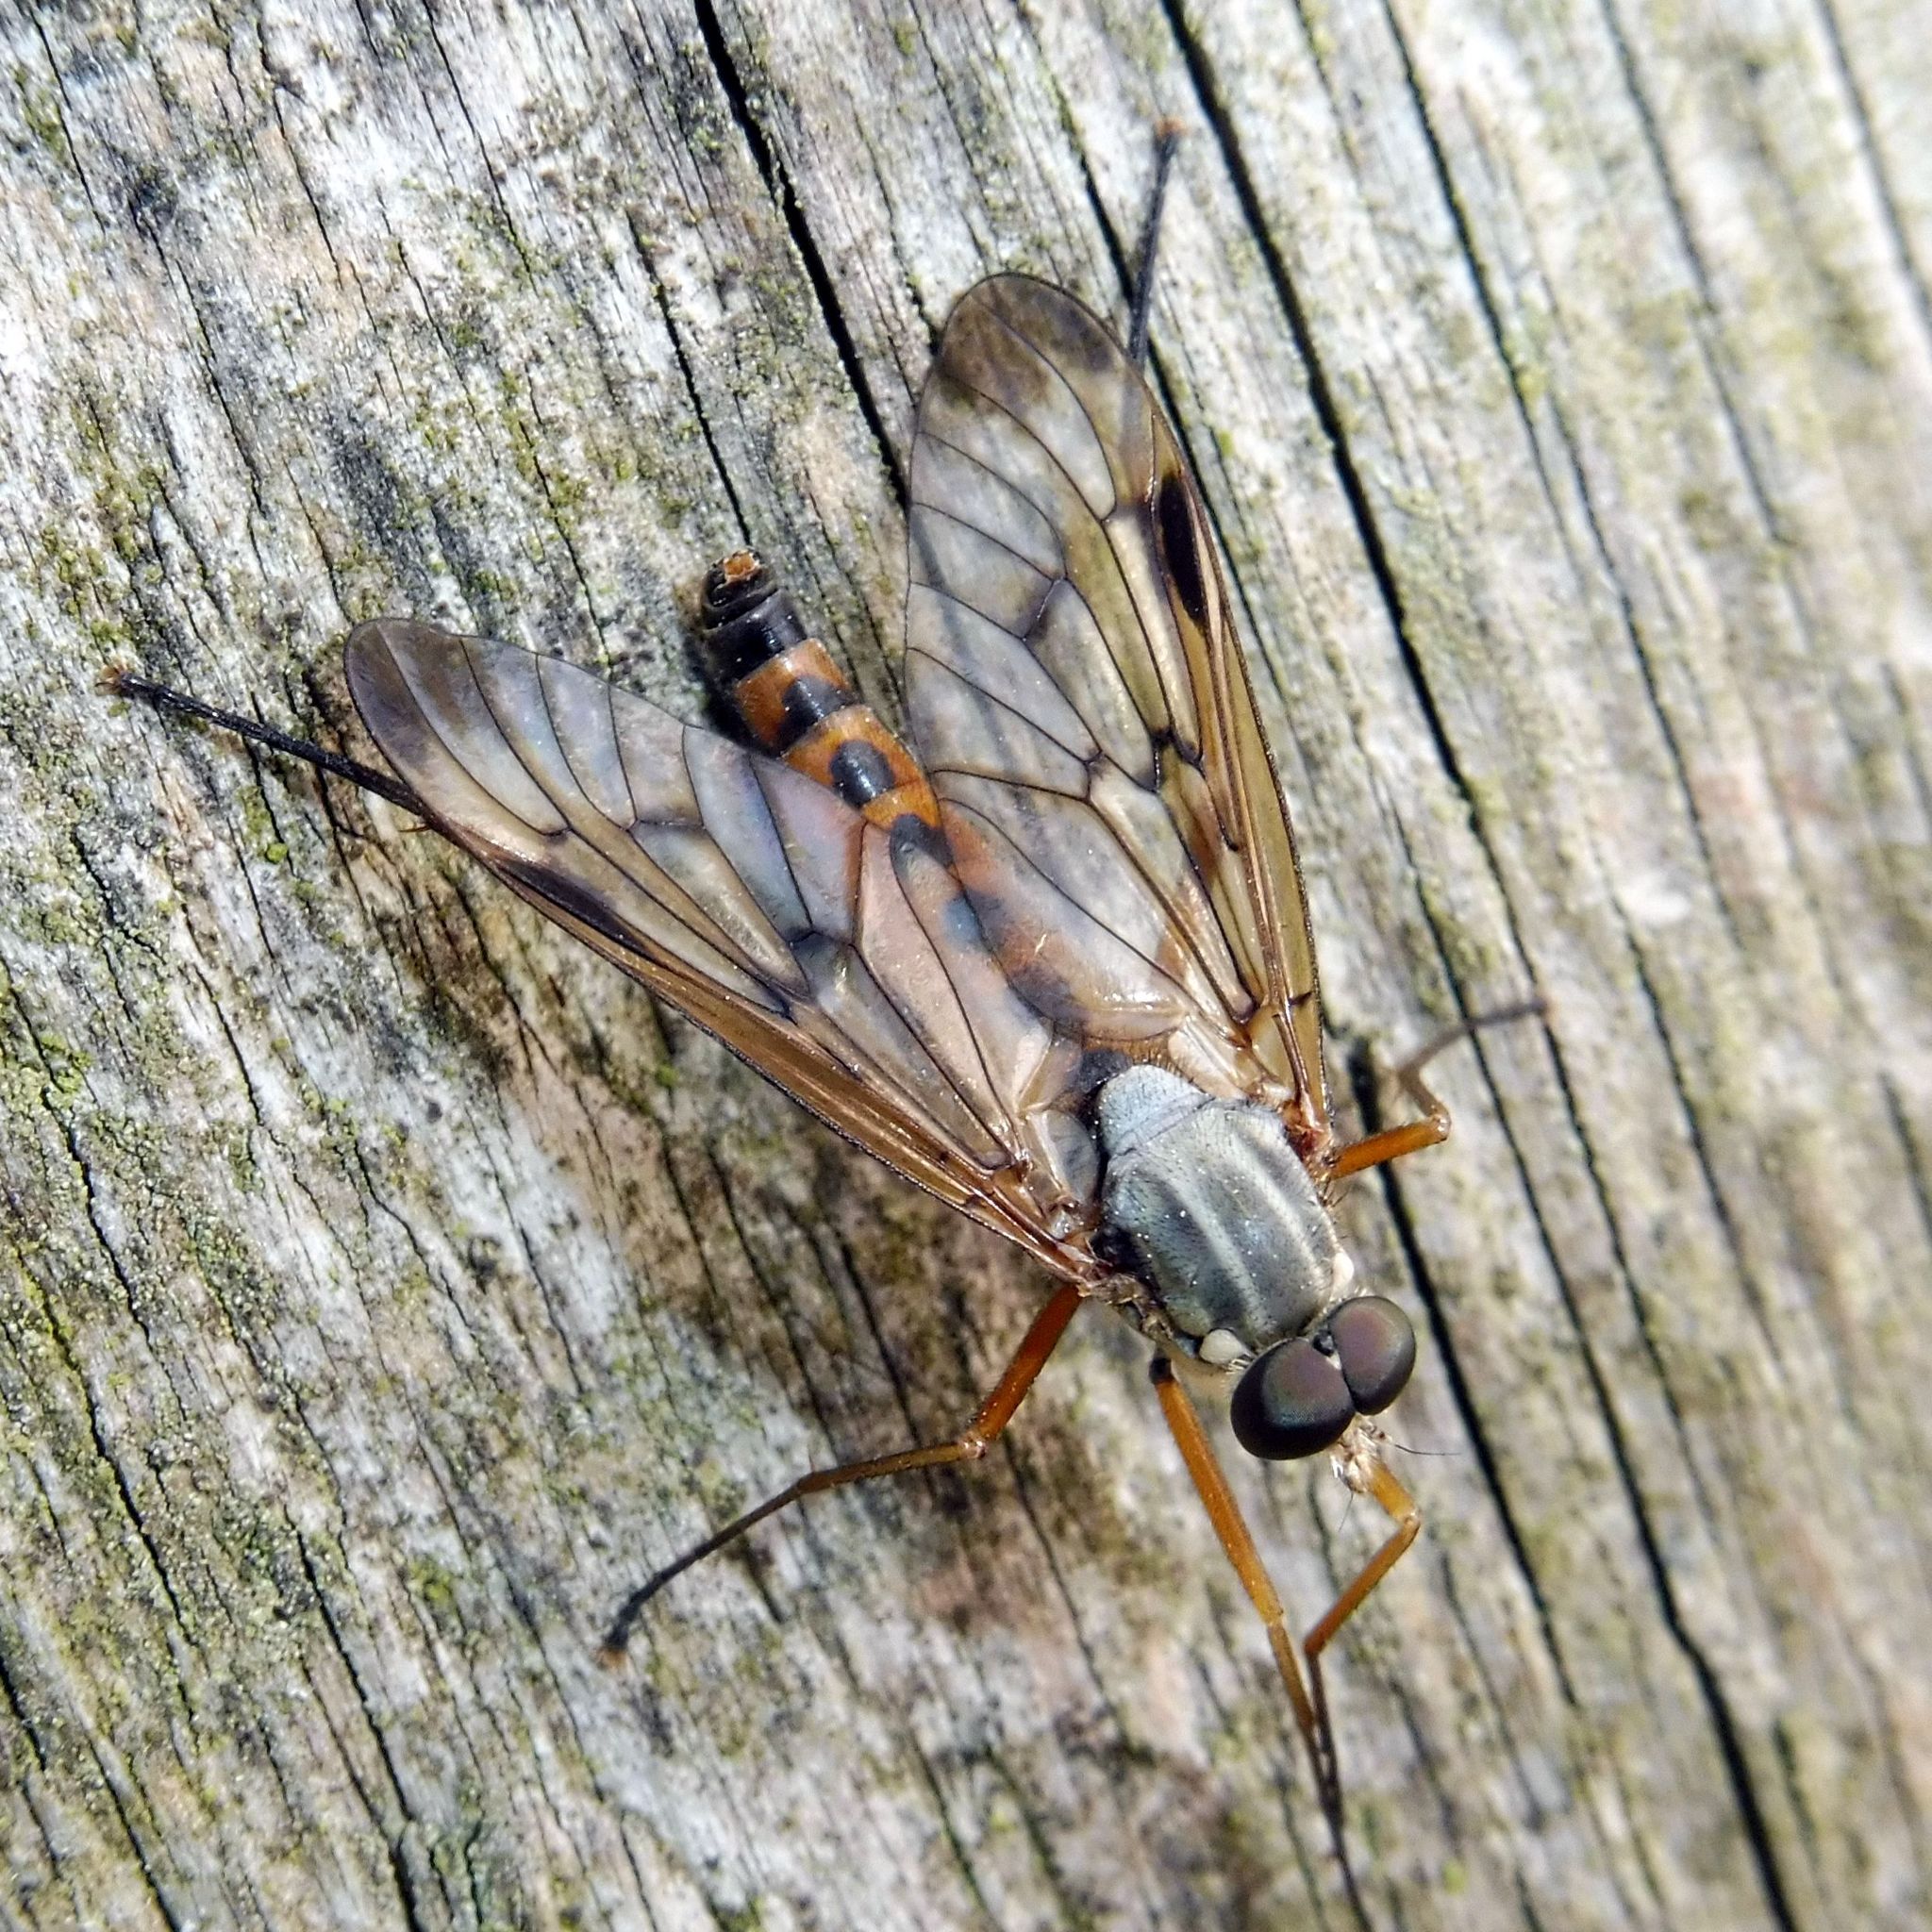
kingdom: Animalia
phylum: Arthropoda
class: Insecta
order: Diptera
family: Rhagionidae
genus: Rhagio
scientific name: Rhagio scolopacea
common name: Downlooker snipefly
